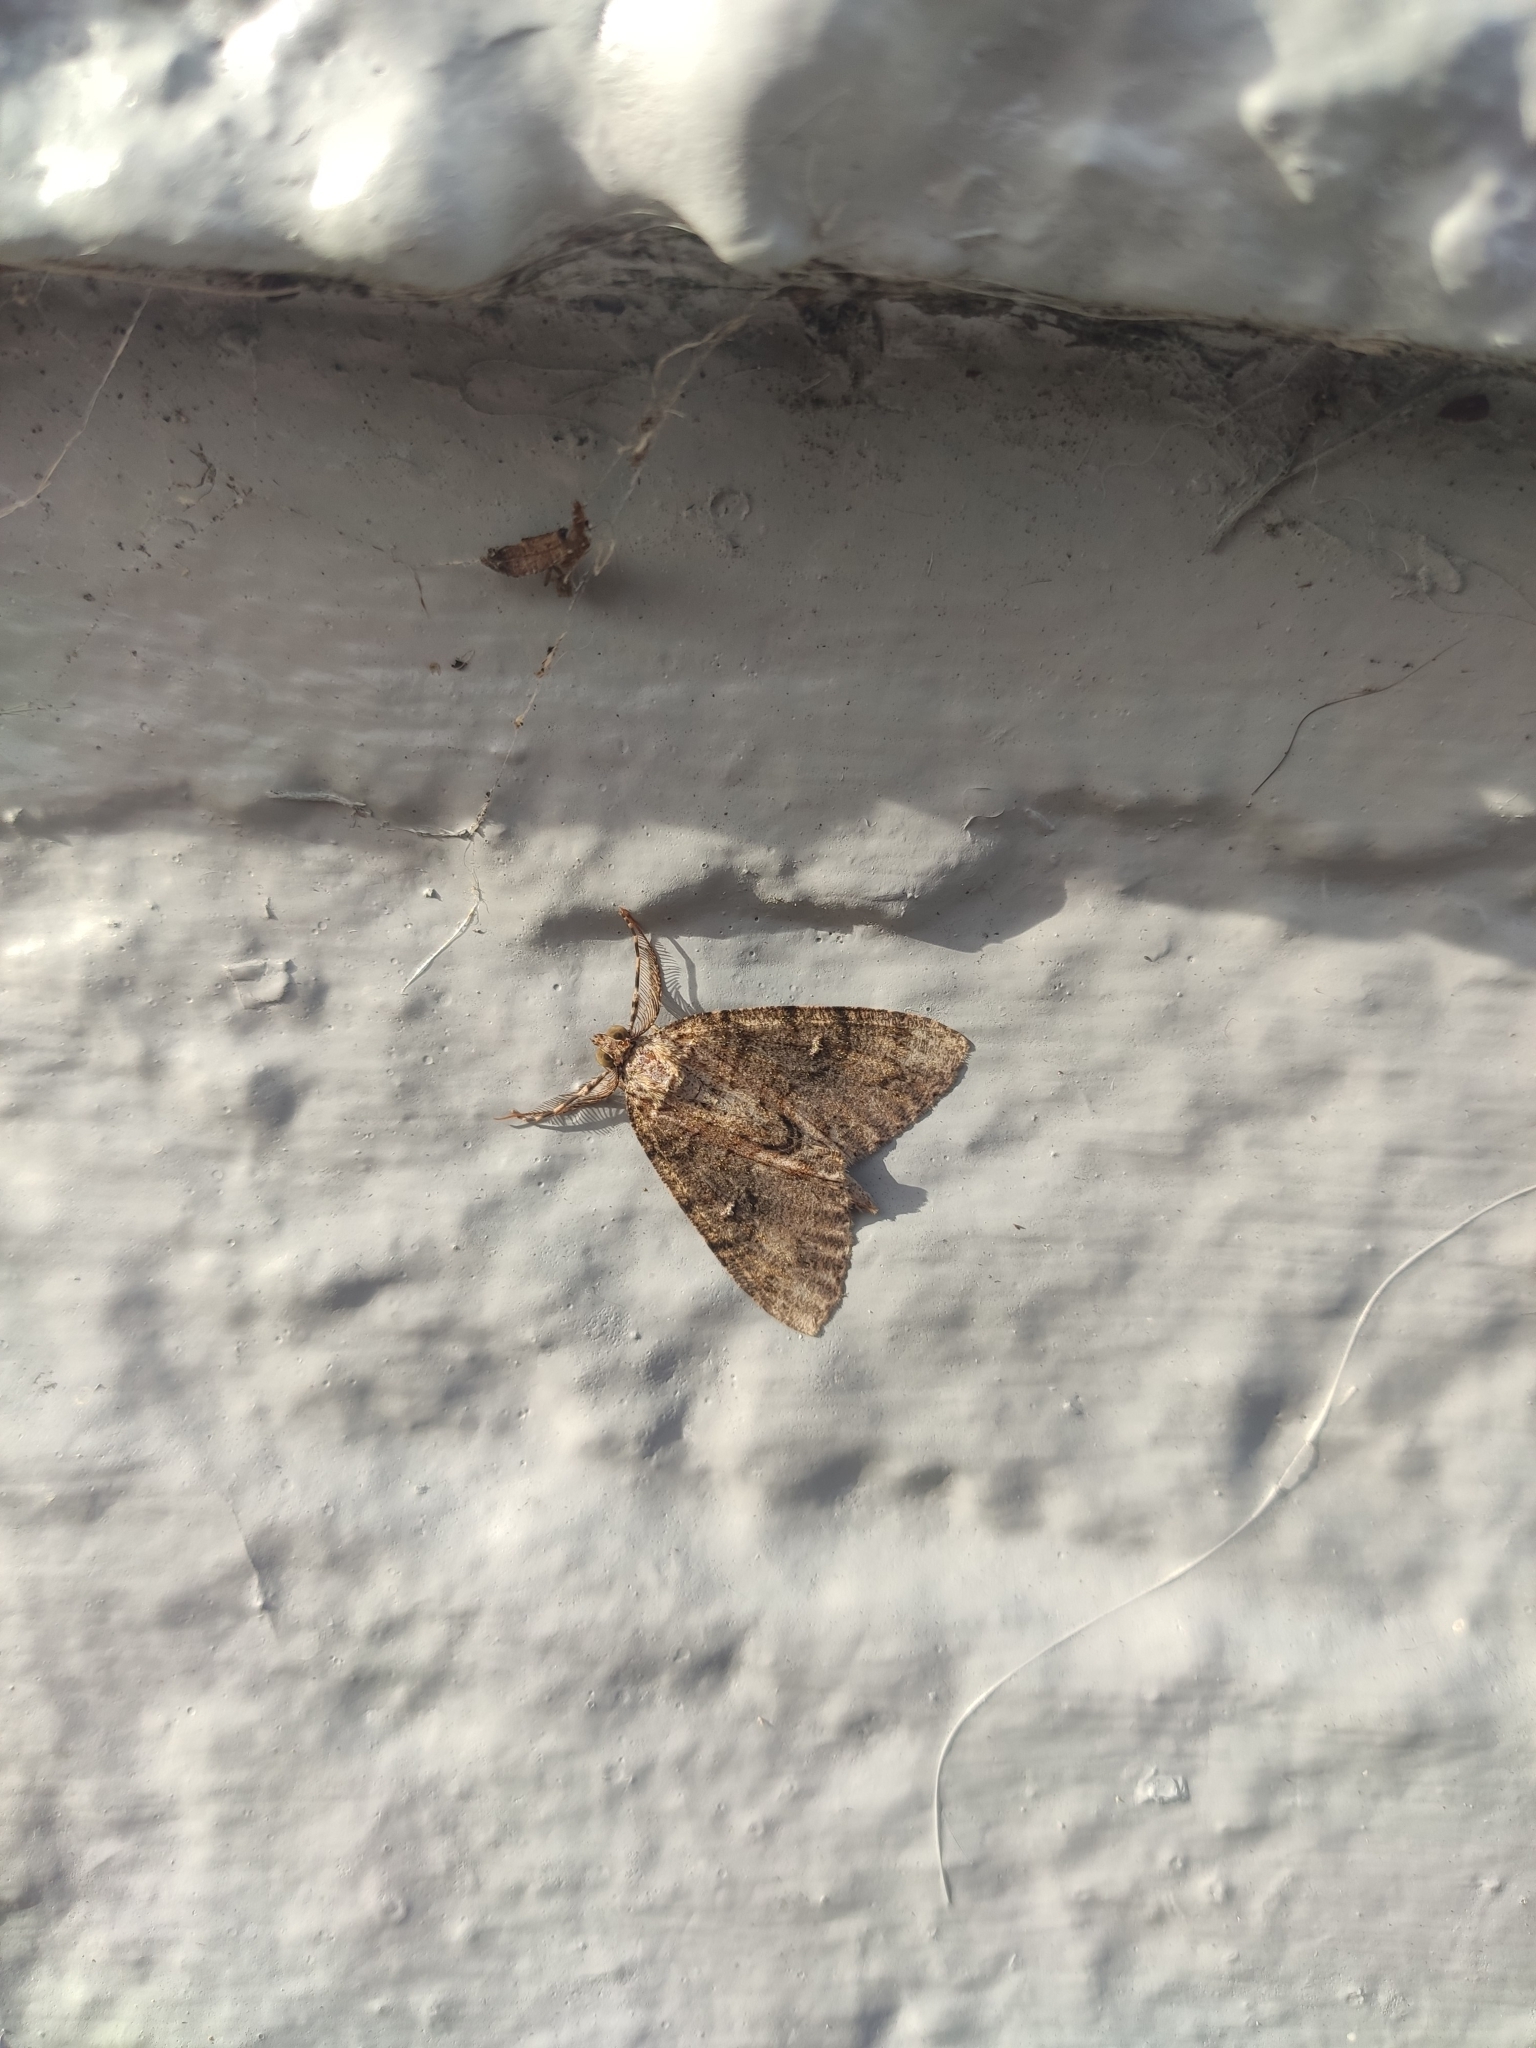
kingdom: Animalia
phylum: Arthropoda
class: Insecta
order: Lepidoptera
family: Geometridae
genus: Pseudocoremia
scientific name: Pseudocoremia suavis
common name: Common forest looper
